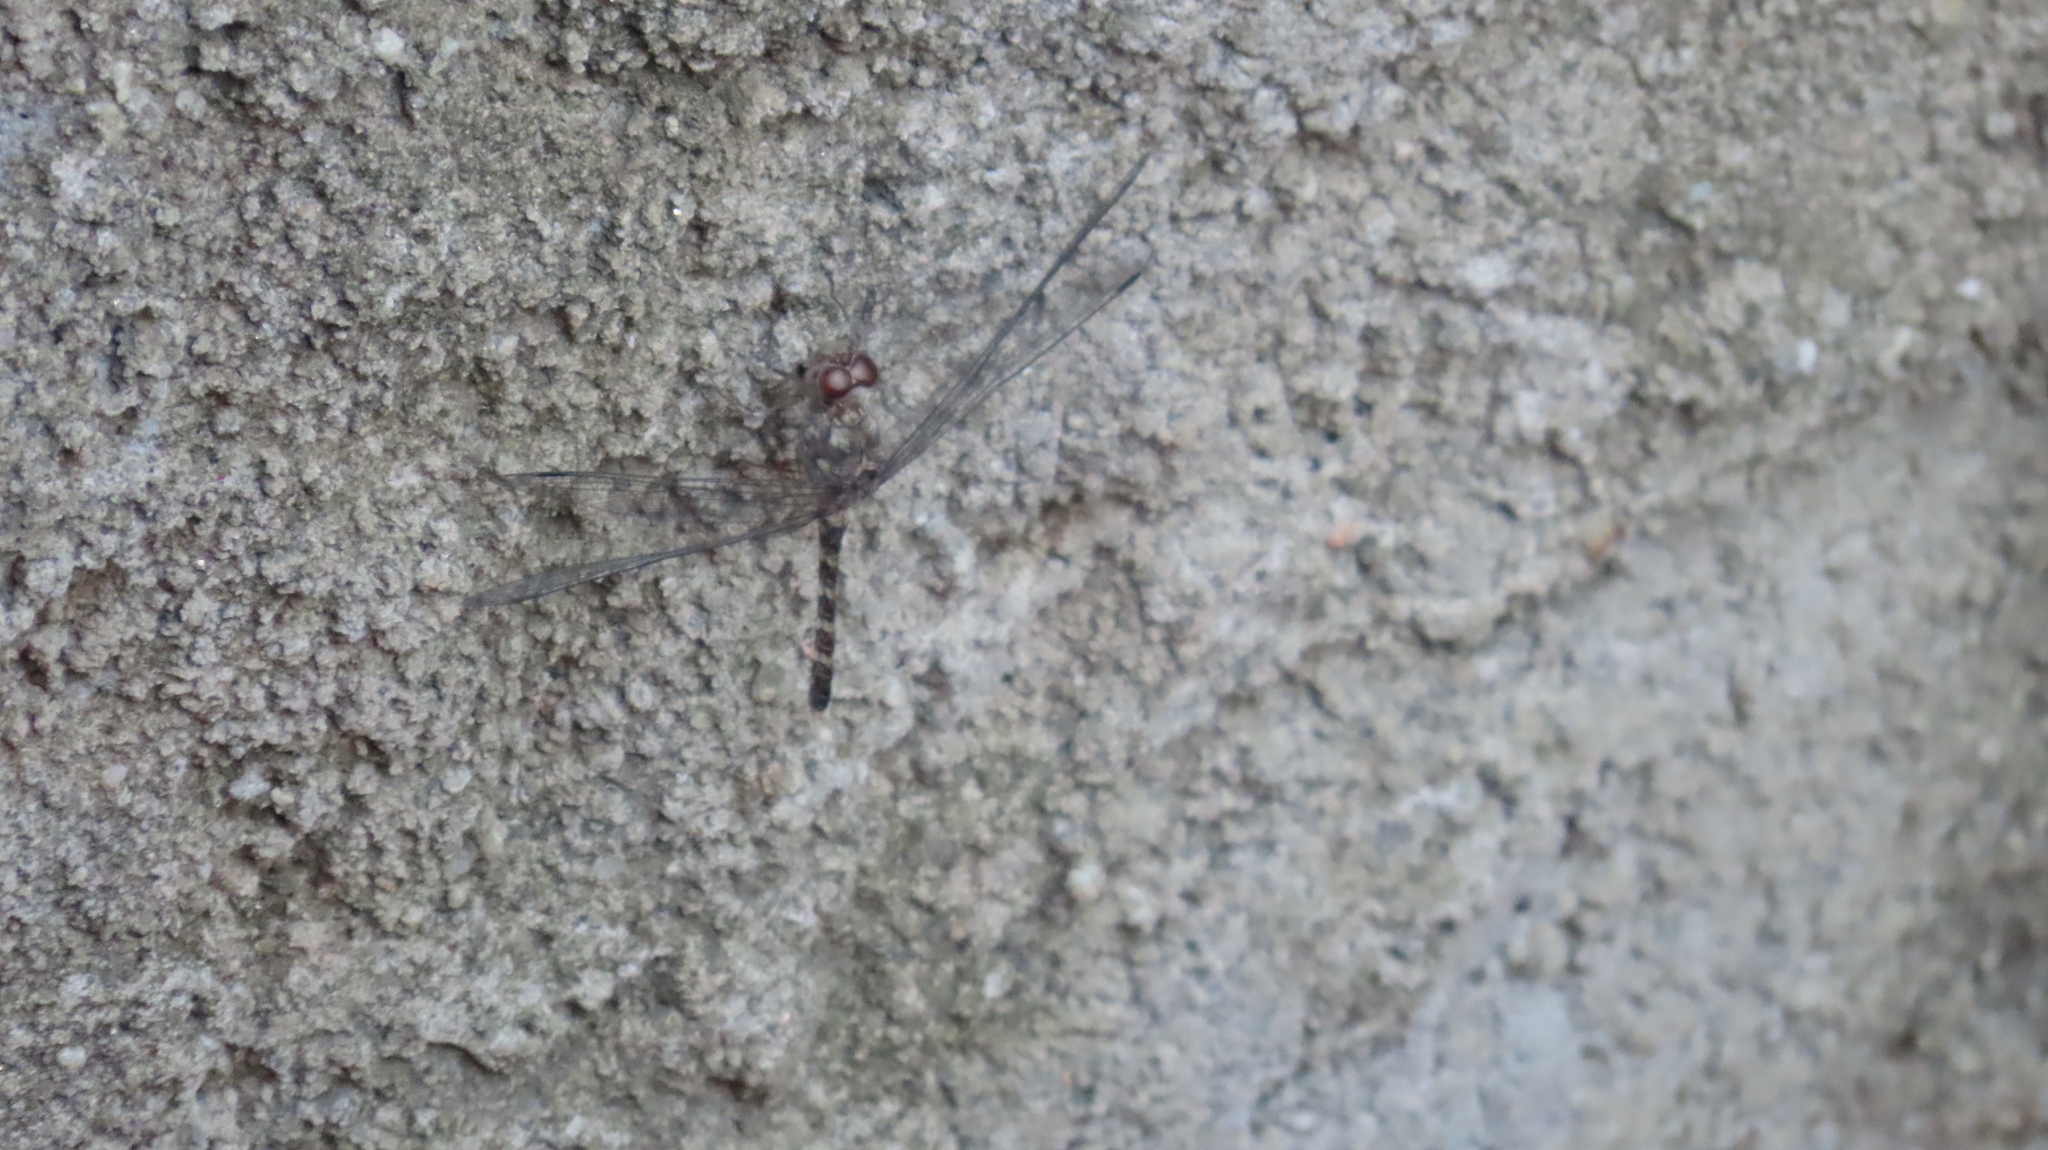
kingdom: Animalia
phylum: Arthropoda
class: Insecta
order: Odonata
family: Libellulidae
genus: Bradinopyga
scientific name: Bradinopyga geminata
